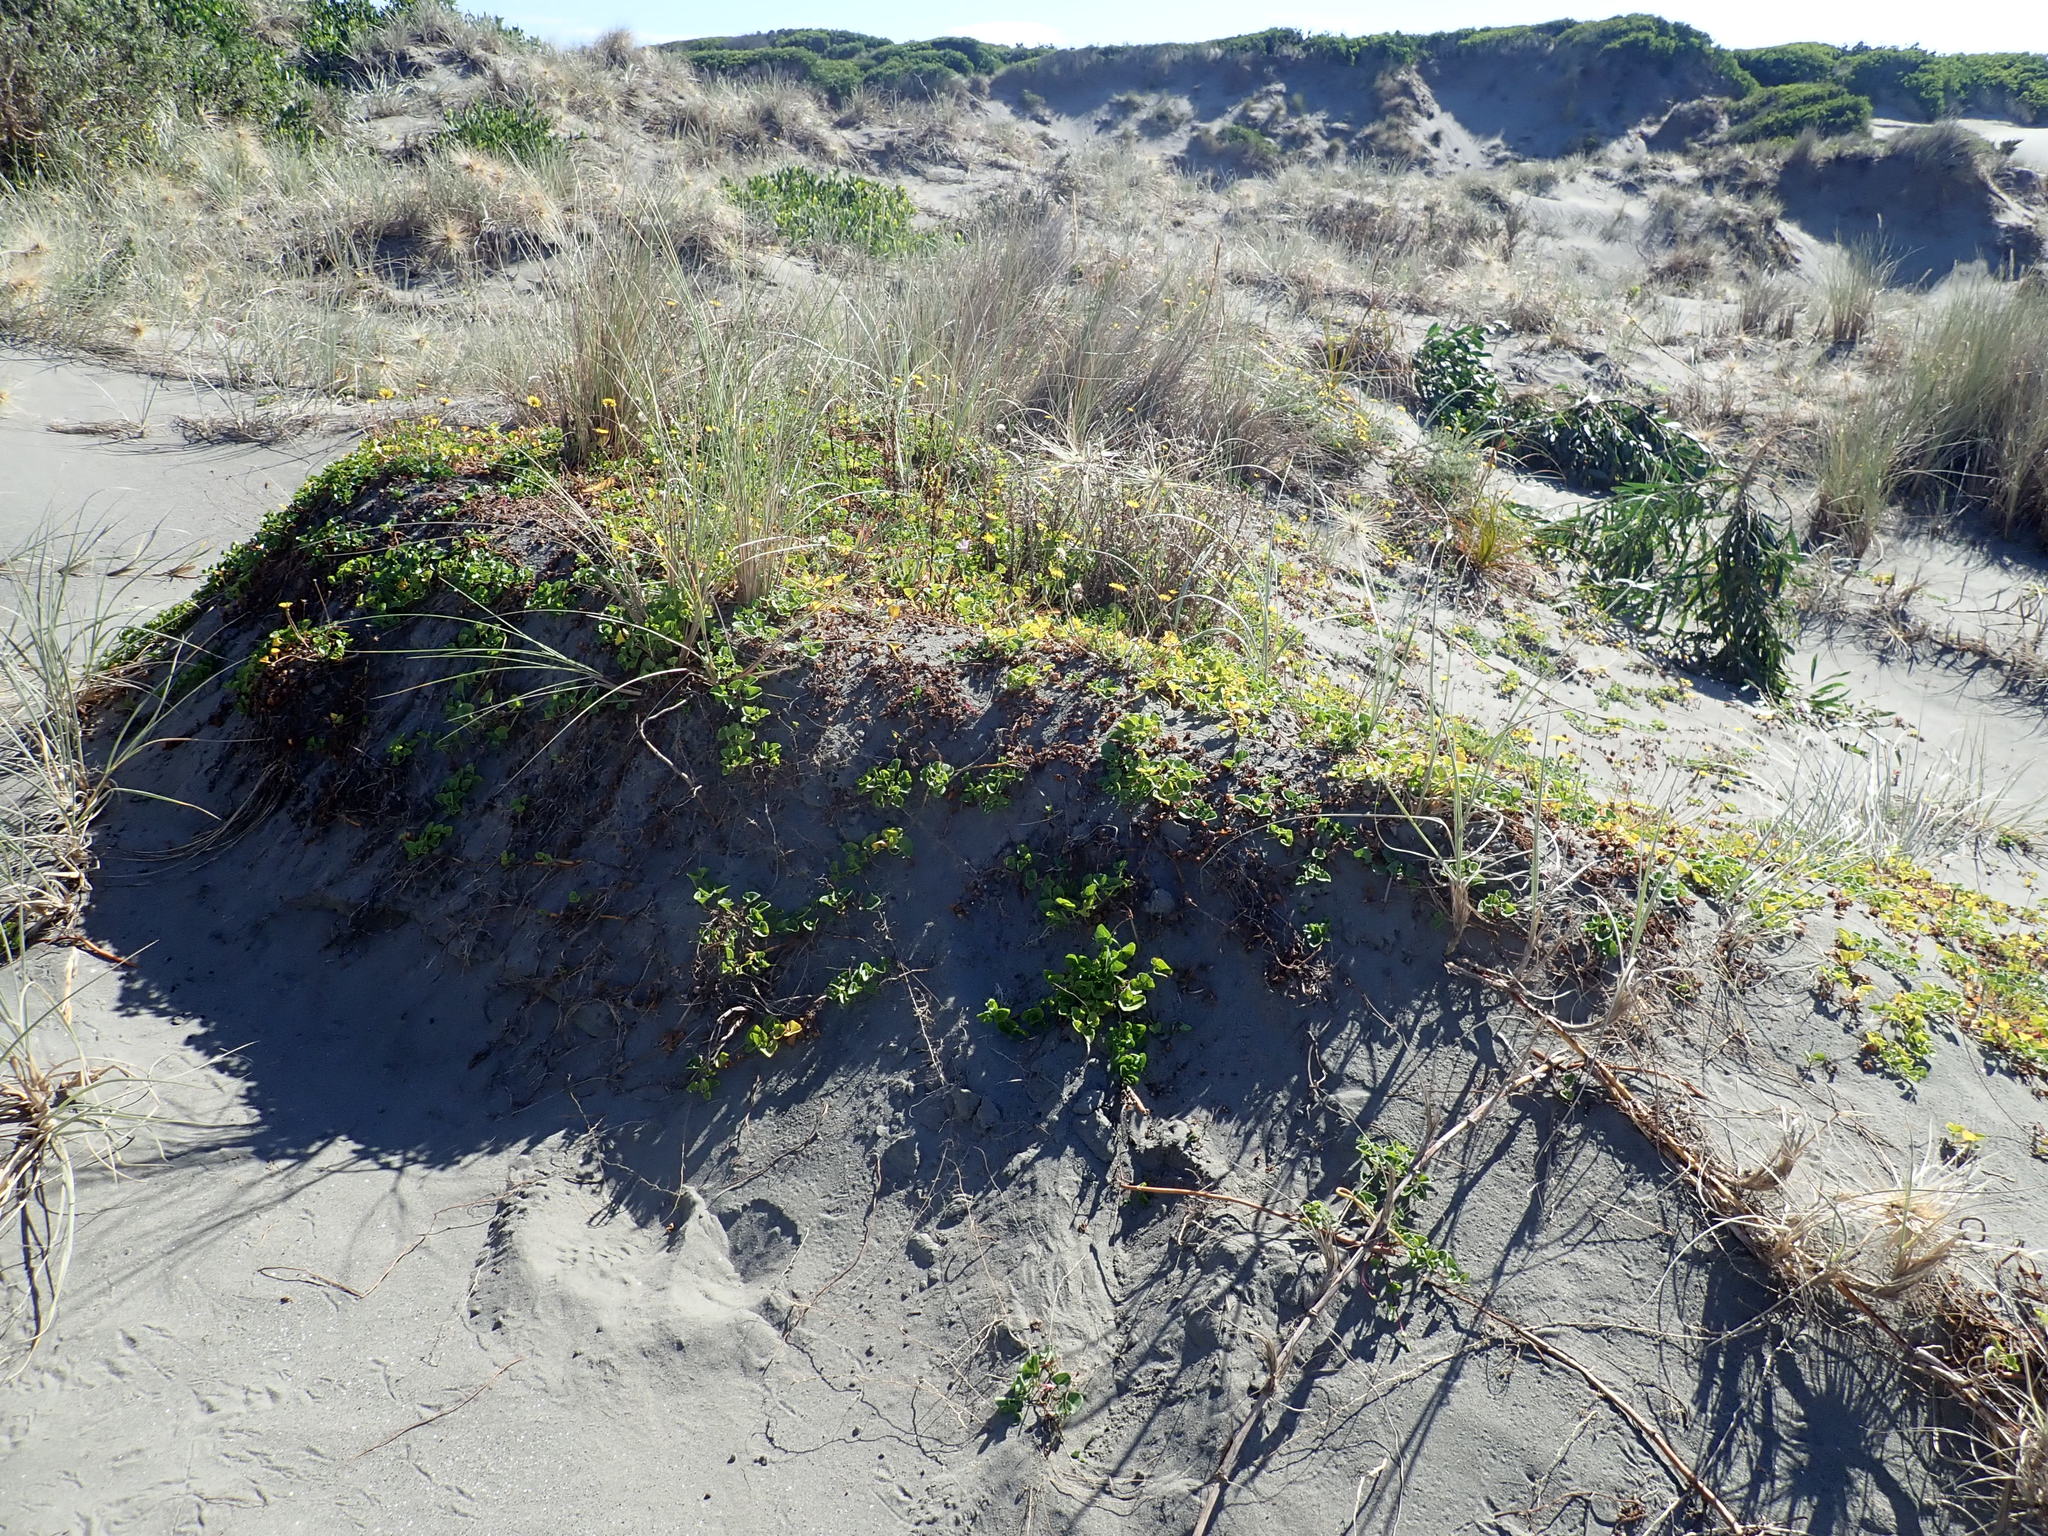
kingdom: Plantae
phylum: Tracheophyta
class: Magnoliopsida
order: Solanales
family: Convolvulaceae
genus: Calystegia
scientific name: Calystegia soldanella
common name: Sea bindweed
